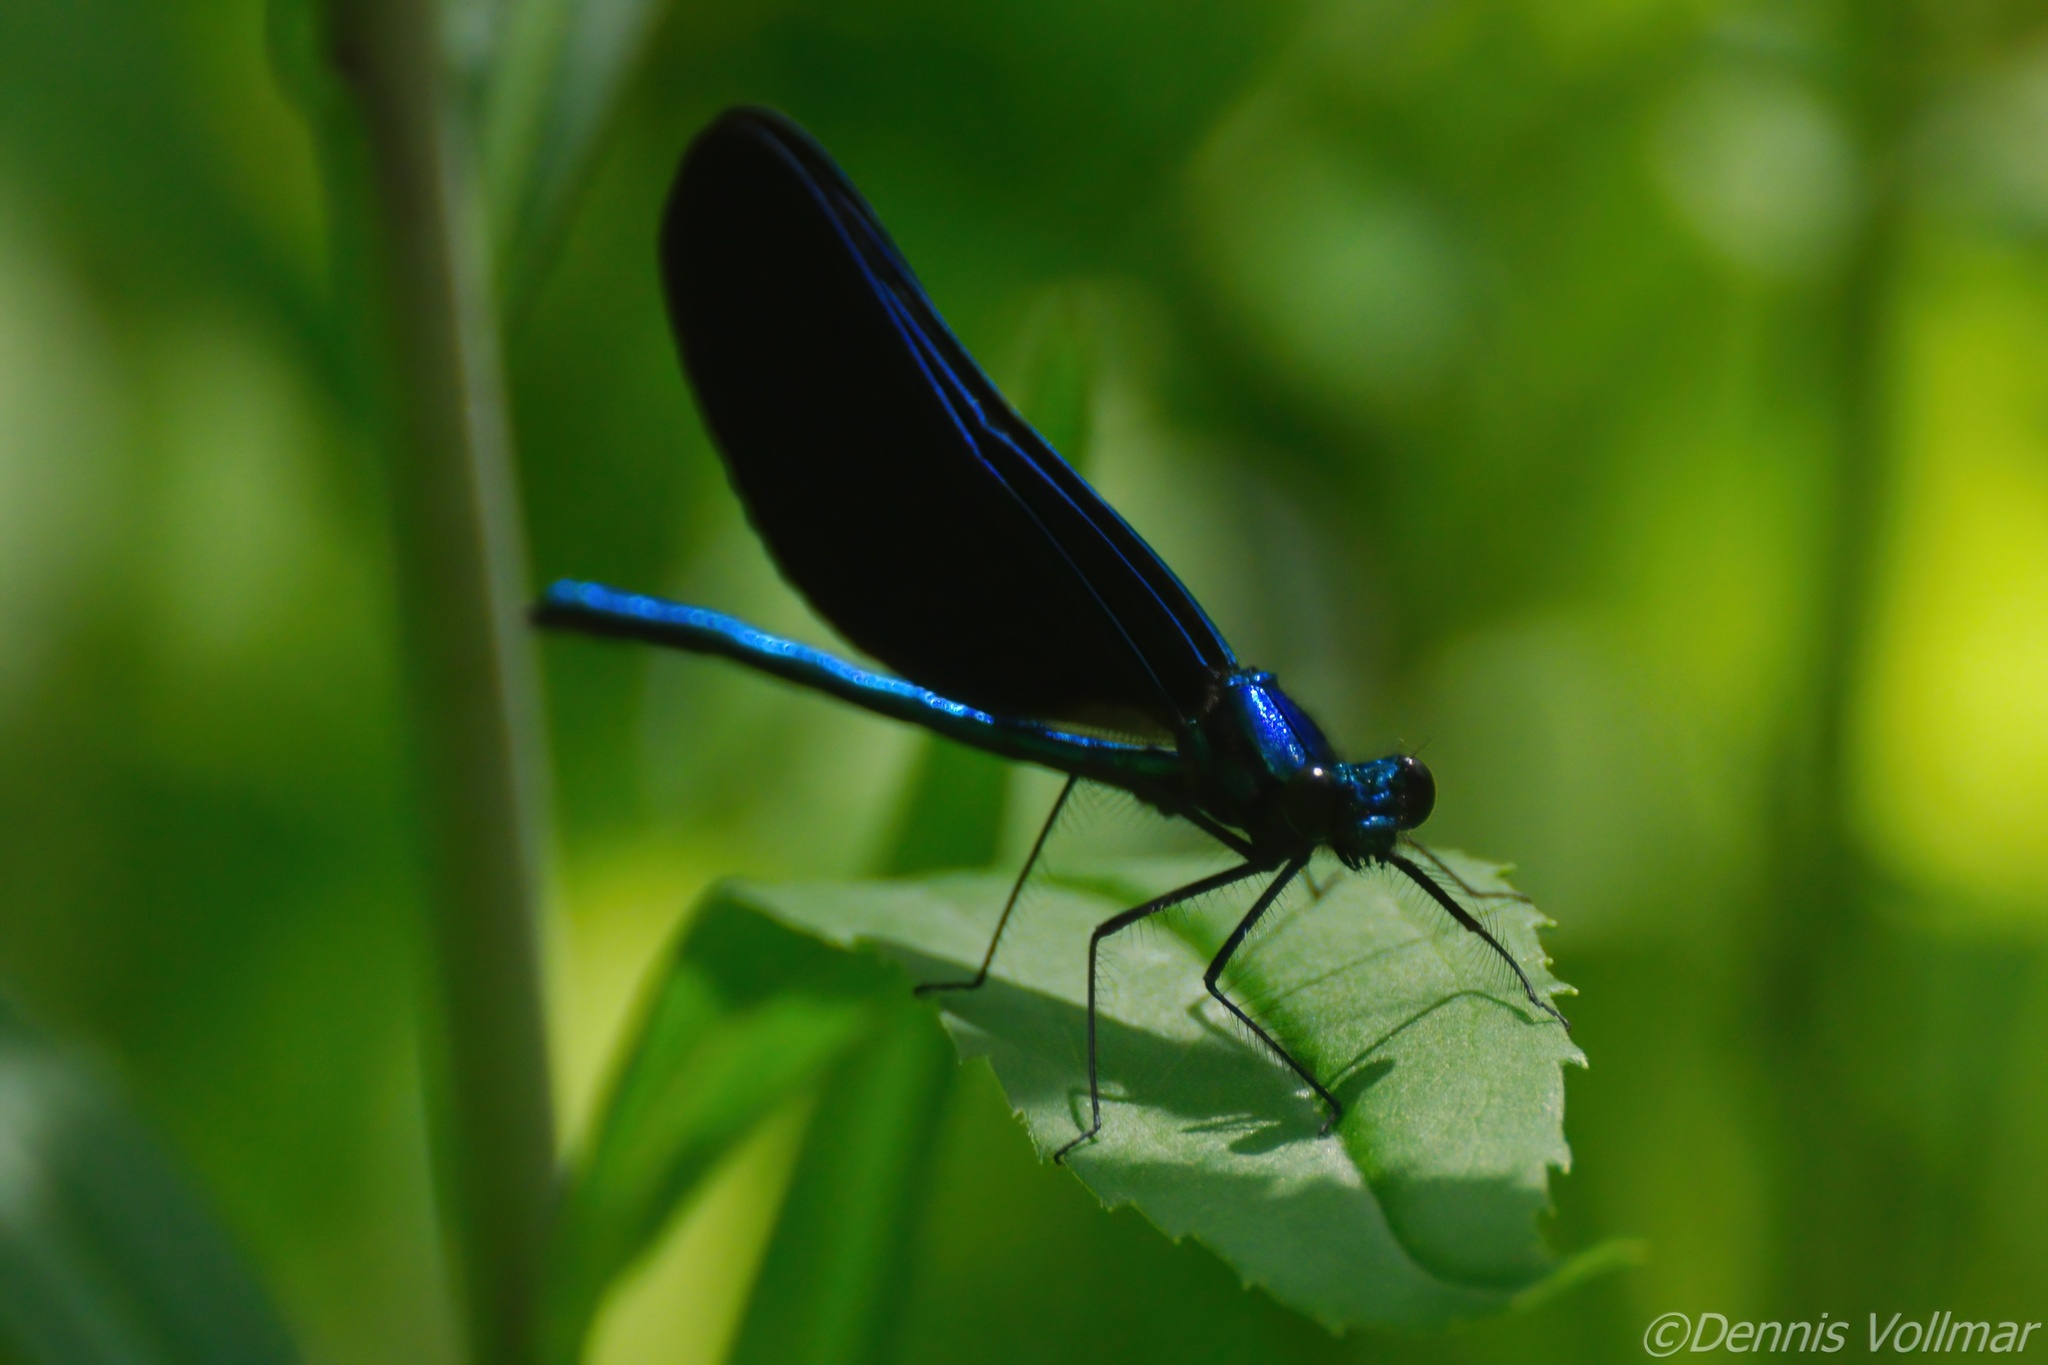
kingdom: Animalia
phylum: Arthropoda
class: Insecta
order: Odonata
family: Calopterygidae
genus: Calopteryx
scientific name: Calopteryx maculata
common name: Ebony jewelwing
